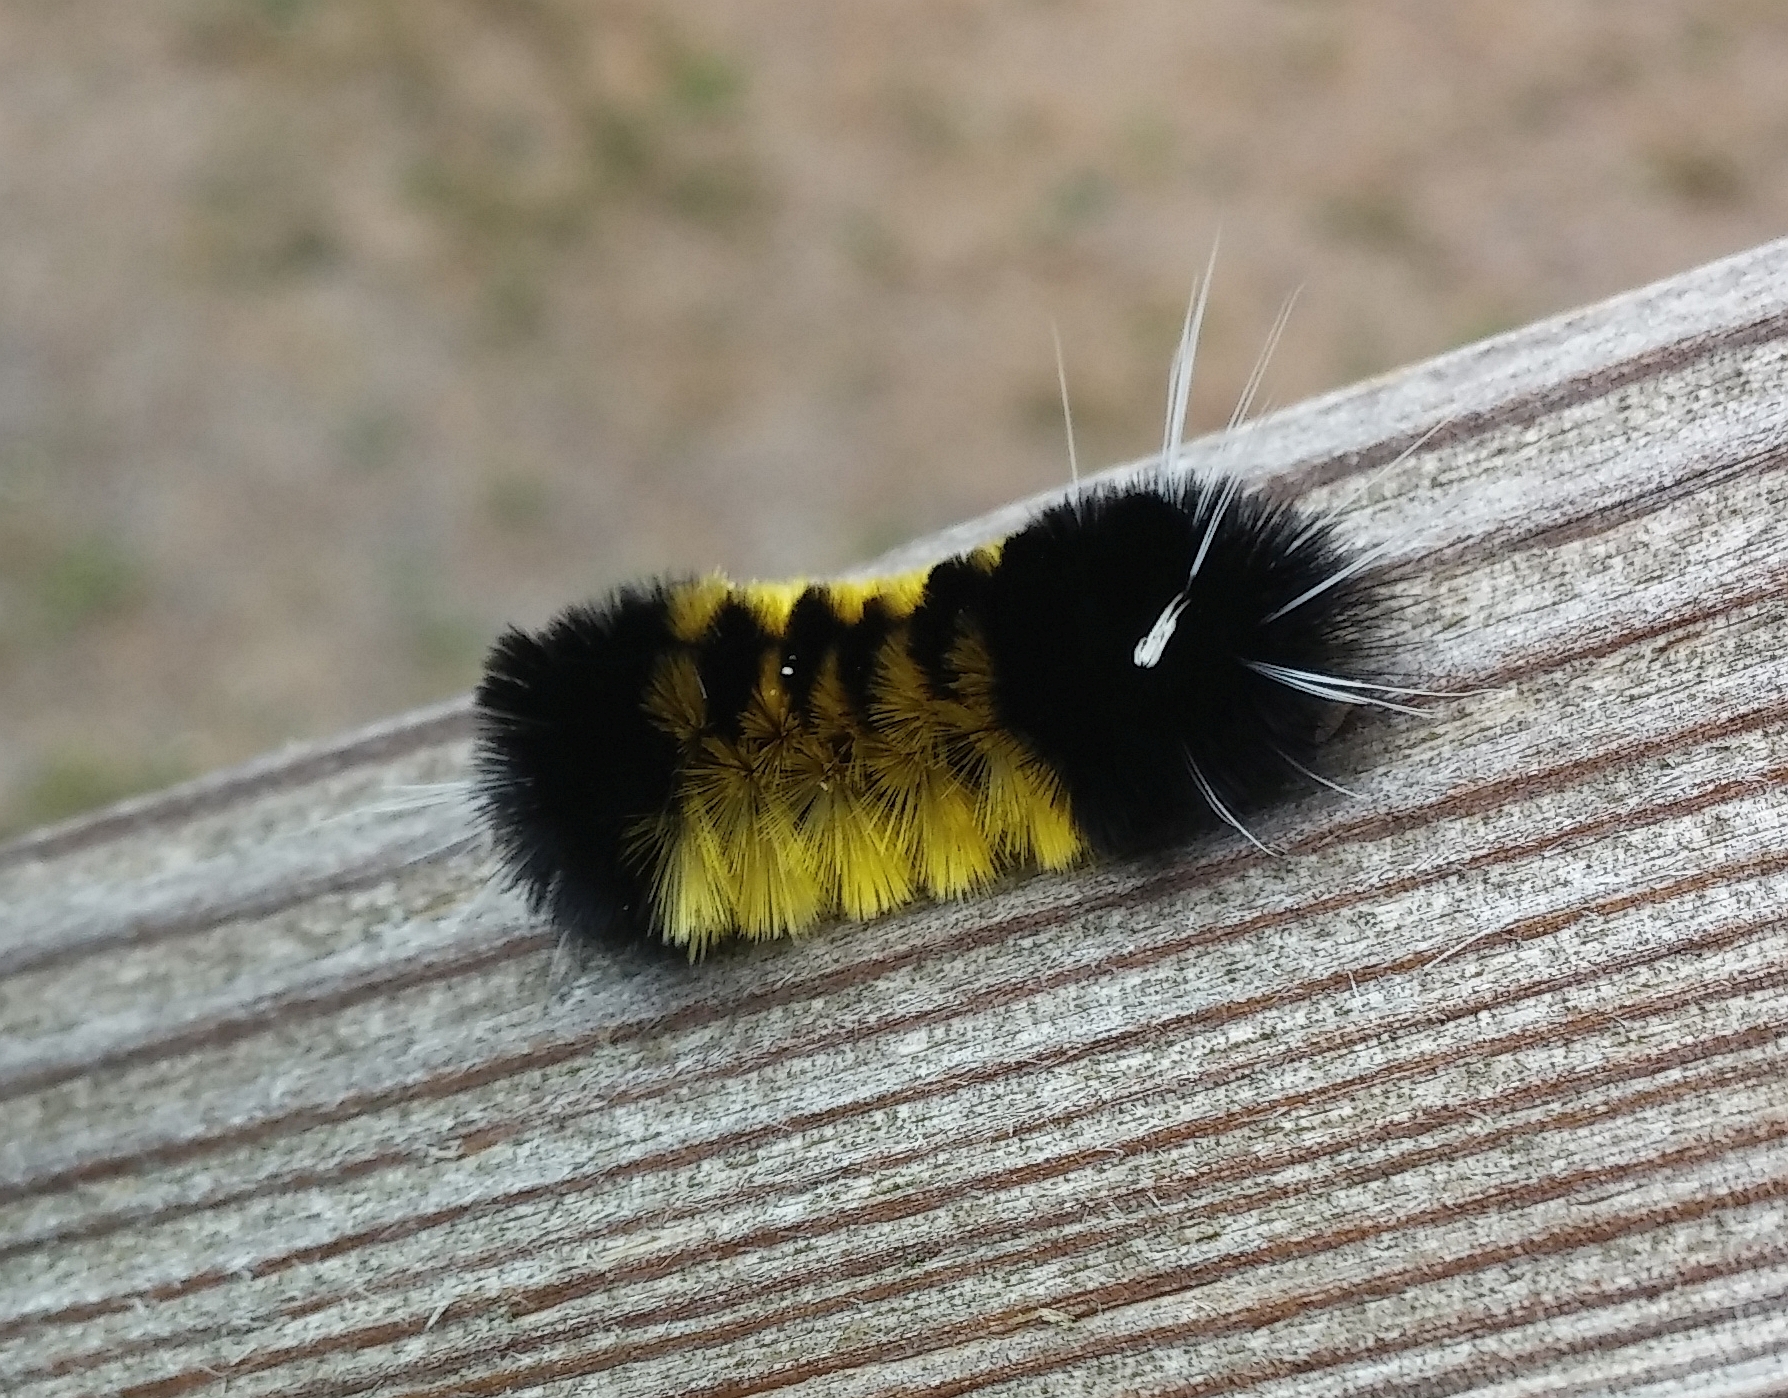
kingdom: Animalia
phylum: Arthropoda
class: Insecta
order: Lepidoptera
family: Erebidae
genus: Lophocampa
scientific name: Lophocampa maculata
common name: Spotted tussock moth
